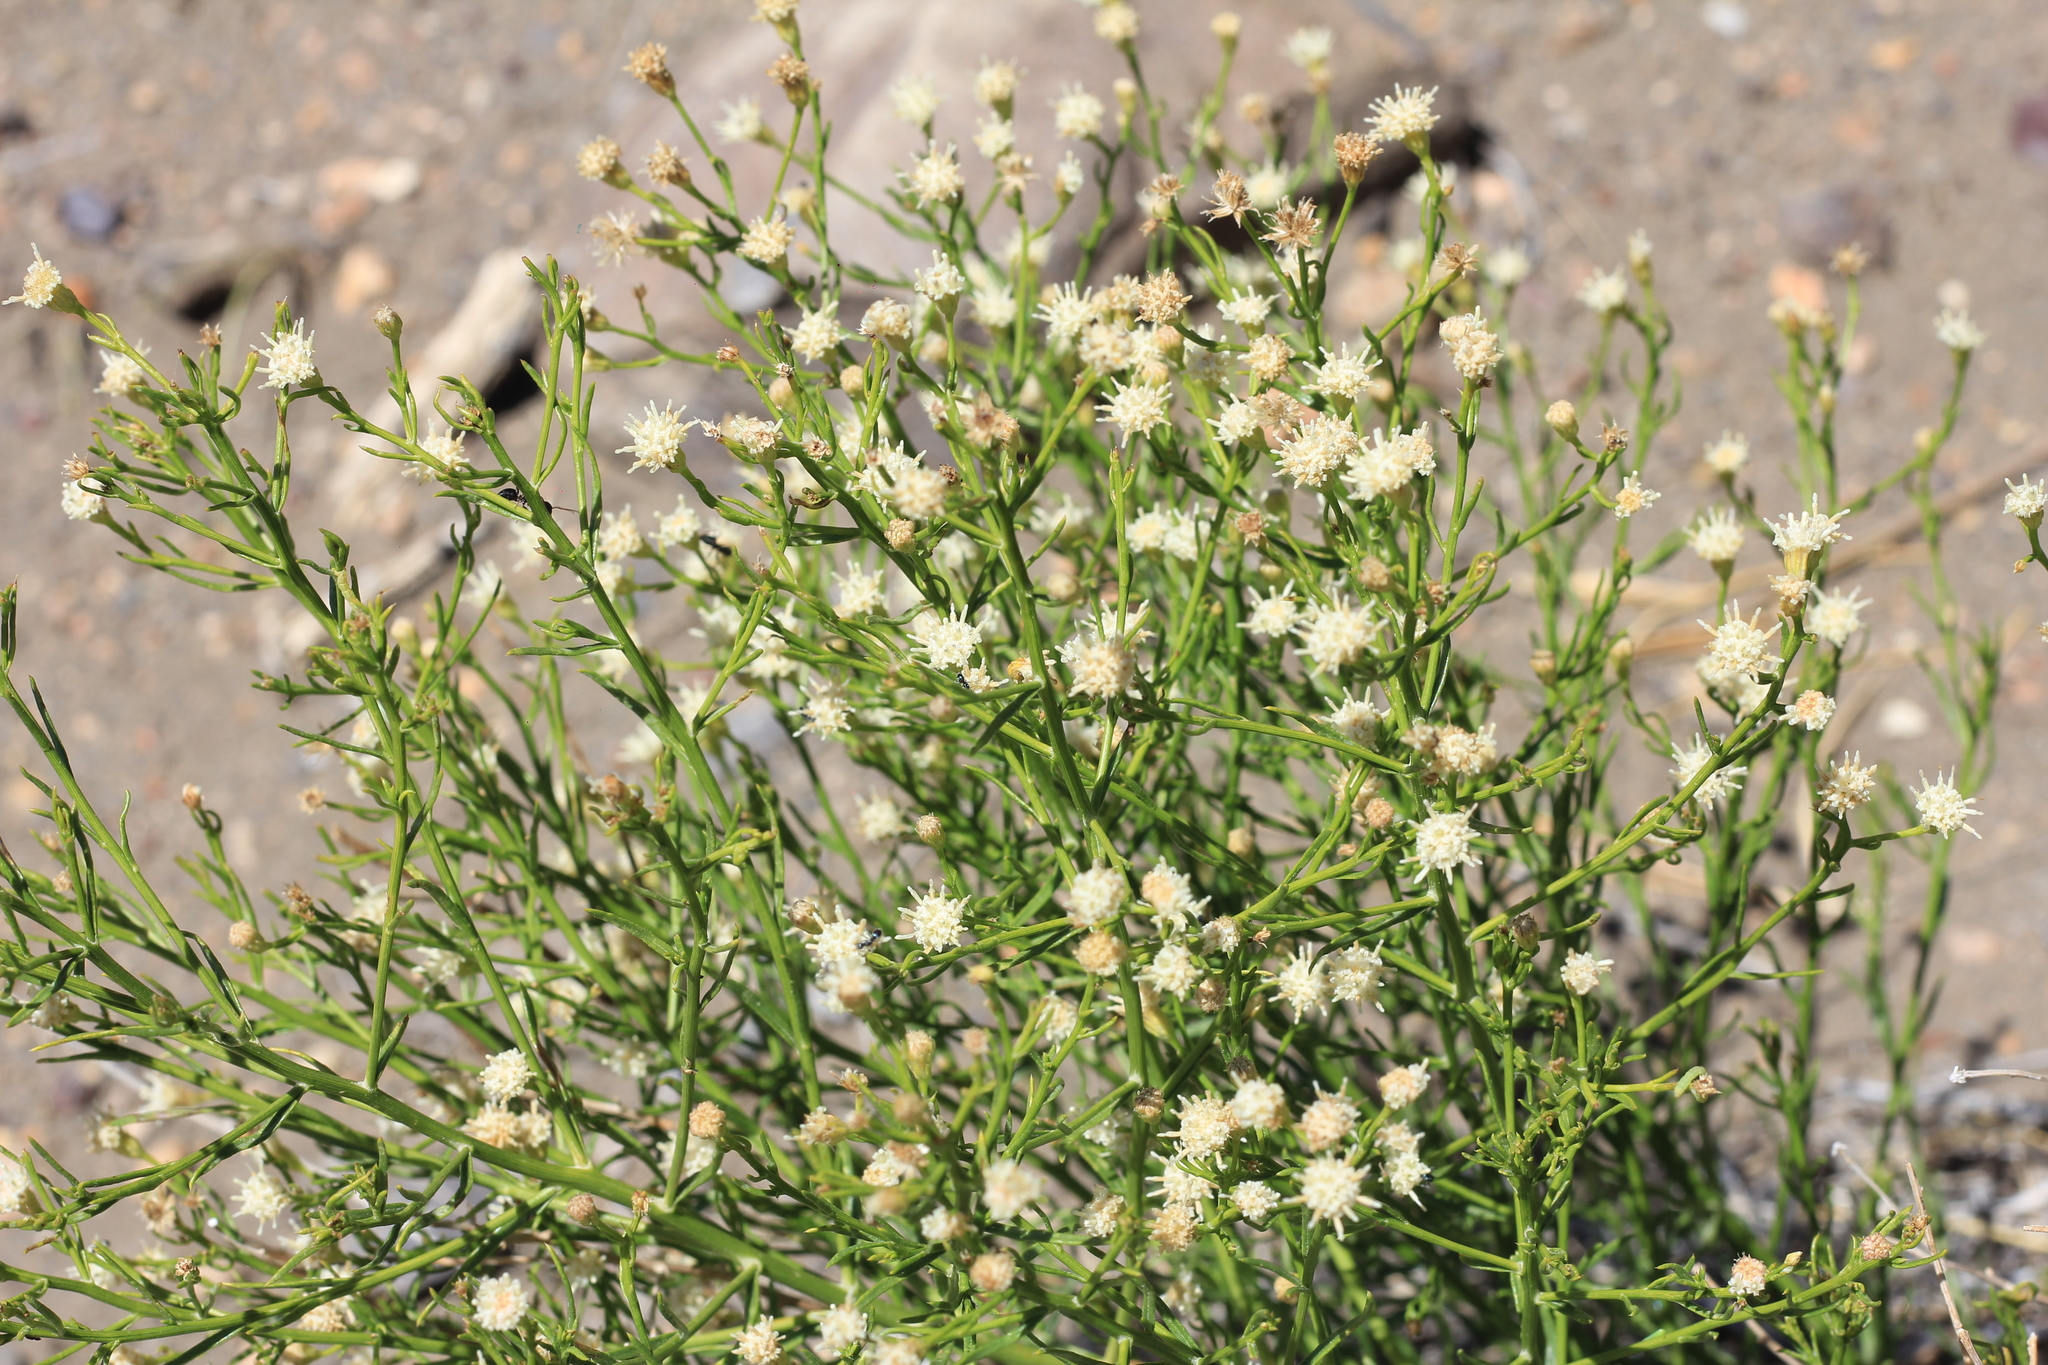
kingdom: Plantae
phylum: Tracheophyta
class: Magnoliopsida
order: Asterales
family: Asteraceae
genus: Baccharis
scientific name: Baccharis darwinii
